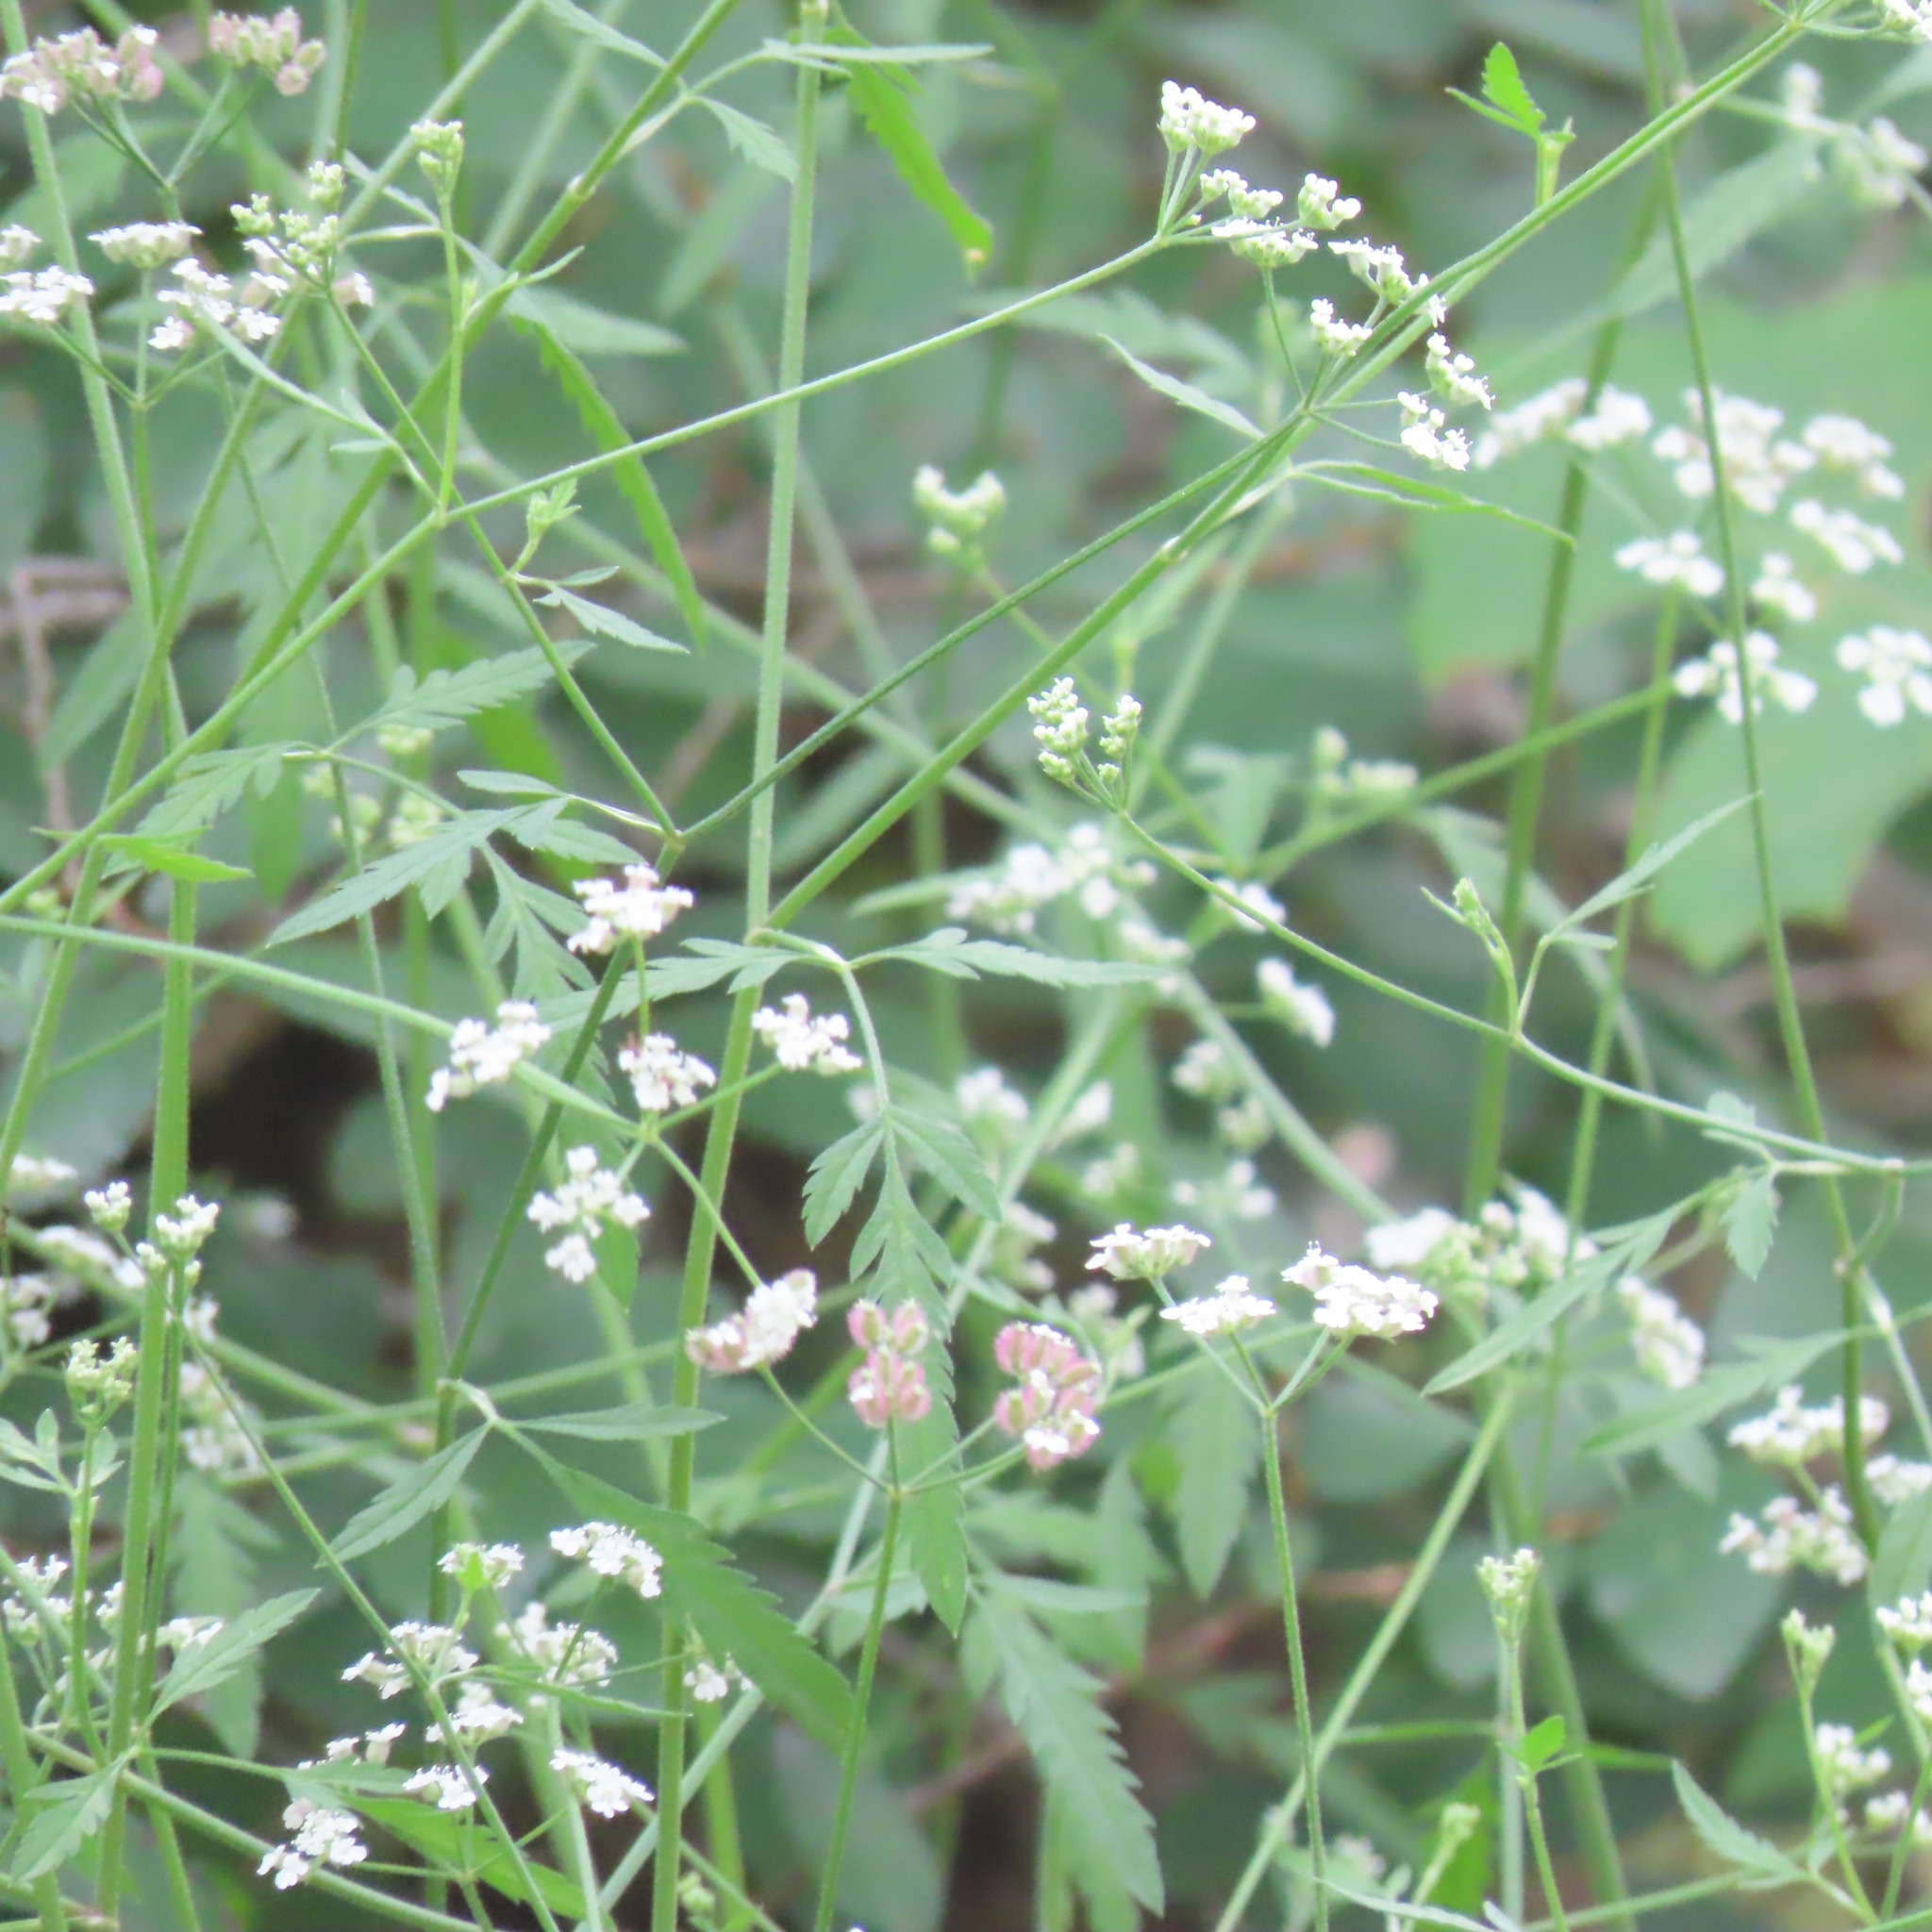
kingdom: Plantae
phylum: Tracheophyta
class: Magnoliopsida
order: Apiales
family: Apiaceae
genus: Torilis
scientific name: Torilis arvensis
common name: Spreading hedge-parsley
